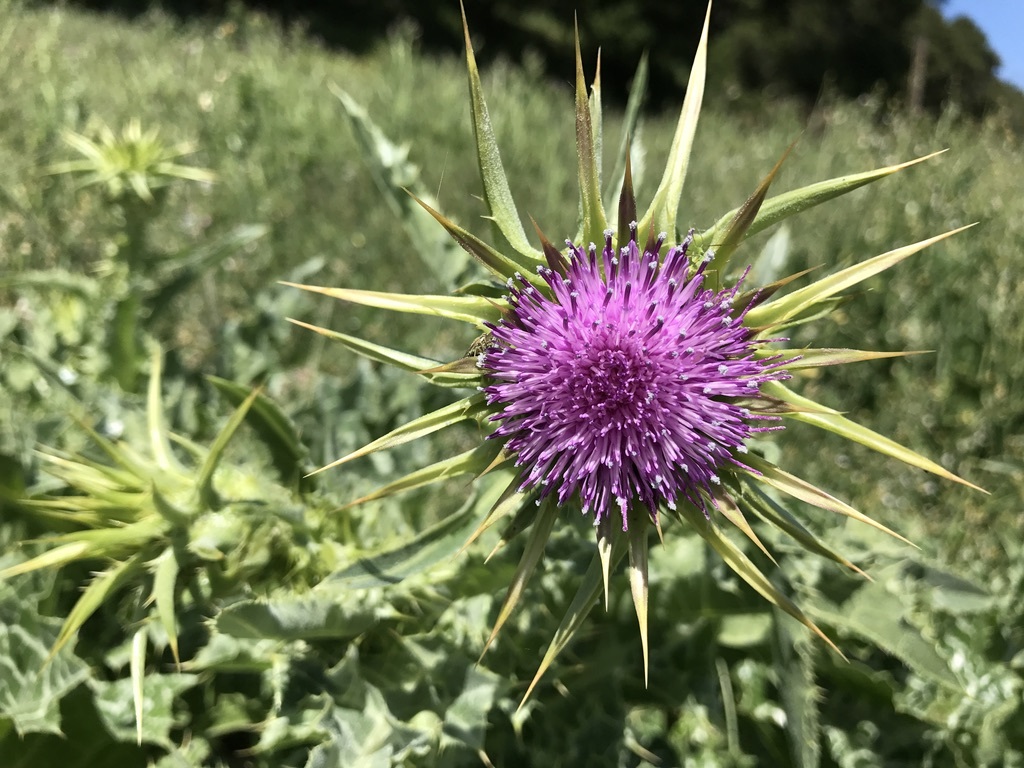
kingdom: Plantae
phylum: Tracheophyta
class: Magnoliopsida
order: Asterales
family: Asteraceae
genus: Silybum
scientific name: Silybum marianum
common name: Milk thistle
